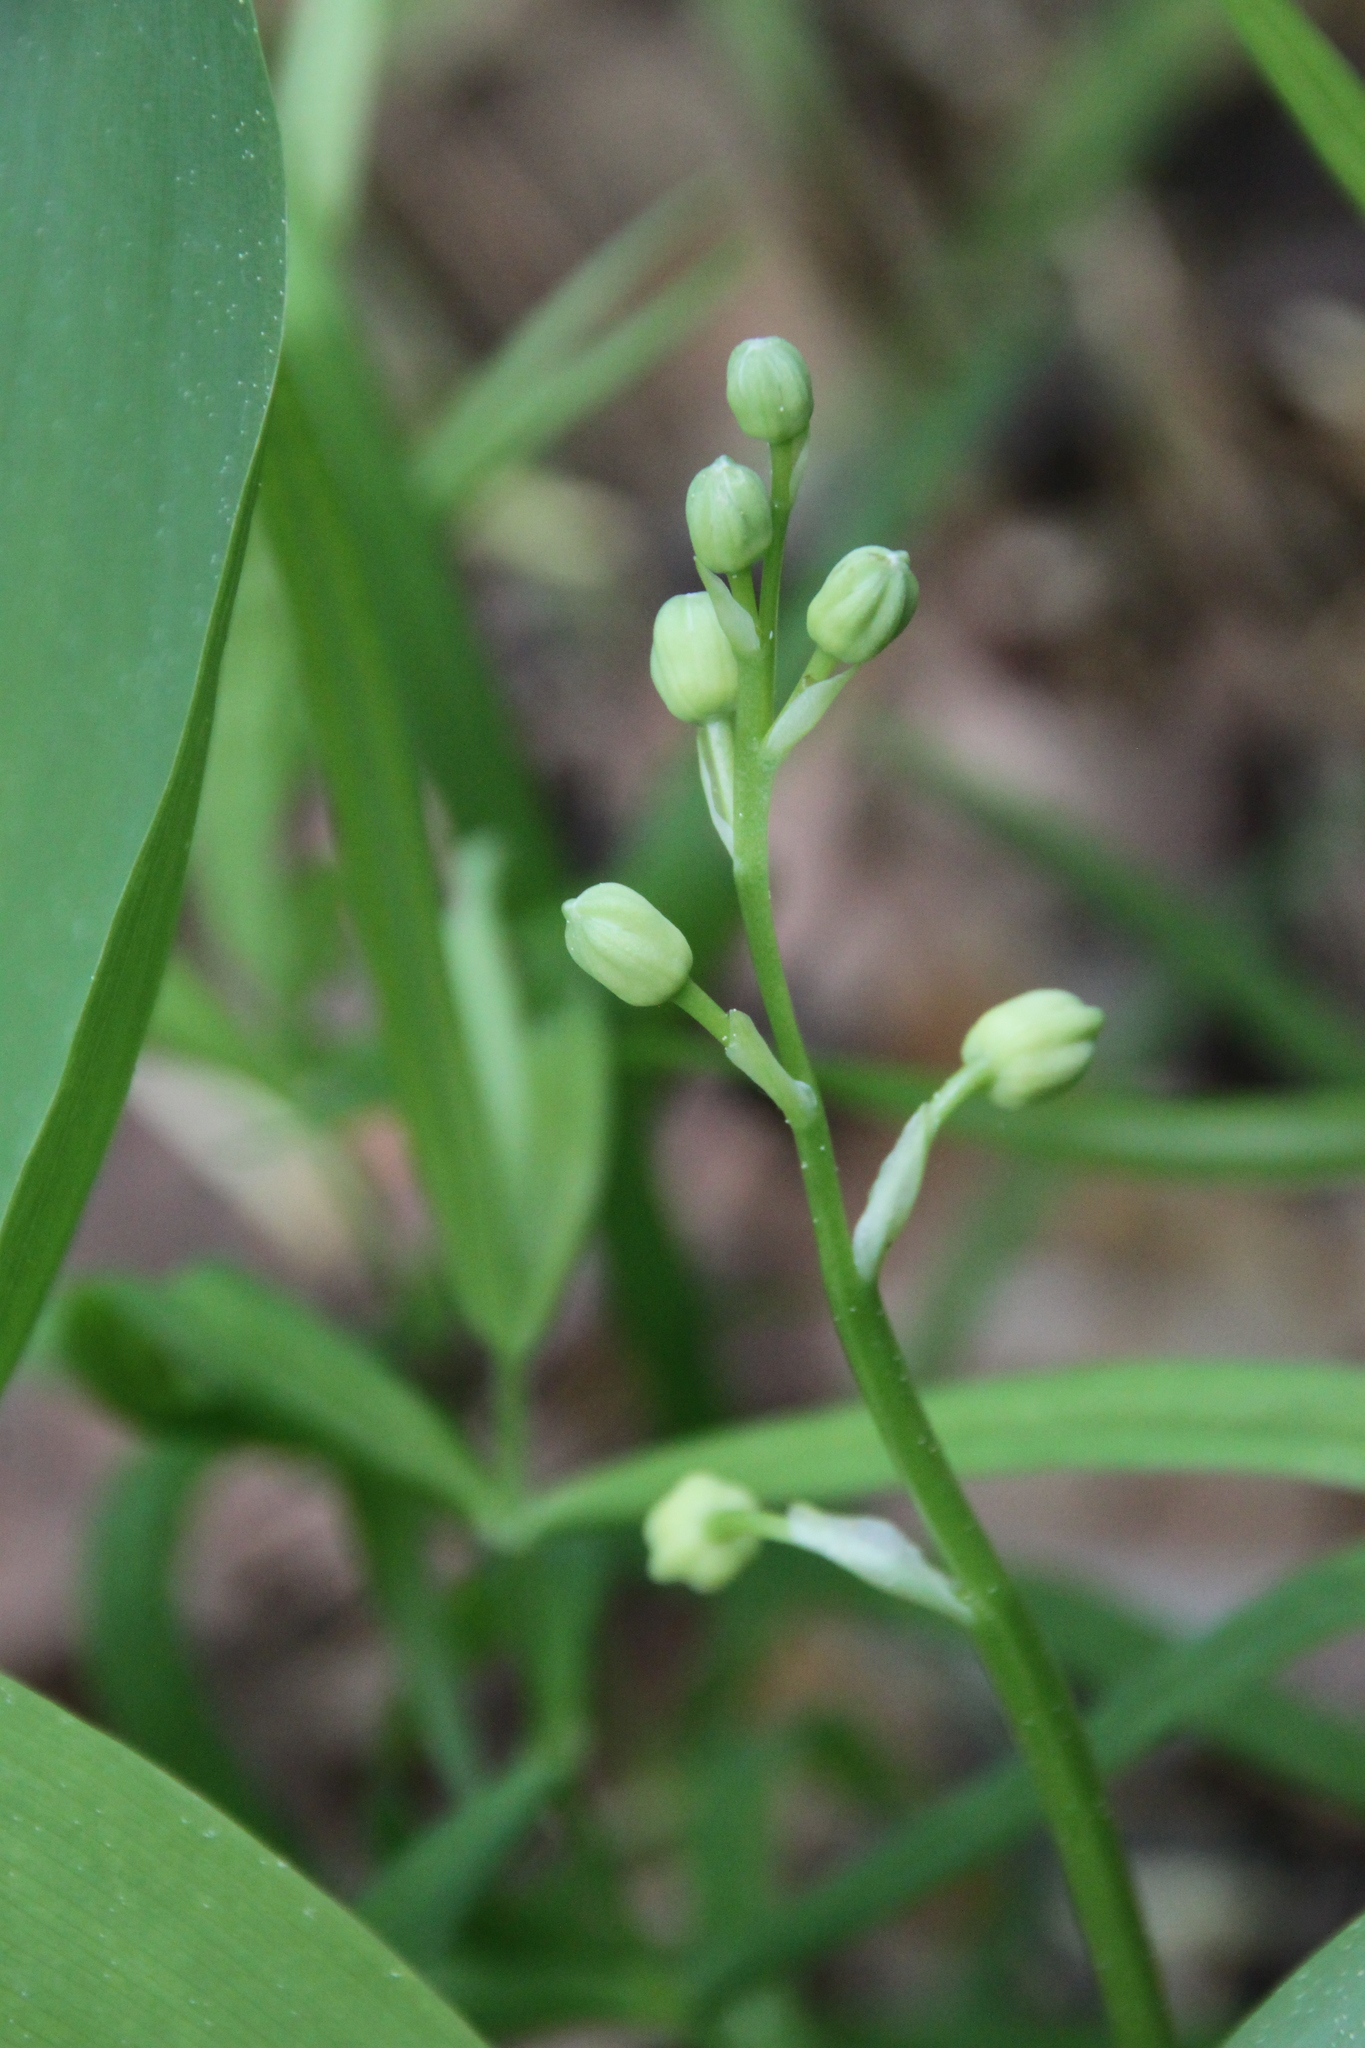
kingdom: Plantae
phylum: Tracheophyta
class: Liliopsida
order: Asparagales
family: Asparagaceae
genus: Convallaria
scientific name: Convallaria majalis
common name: Lily-of-the-valley
